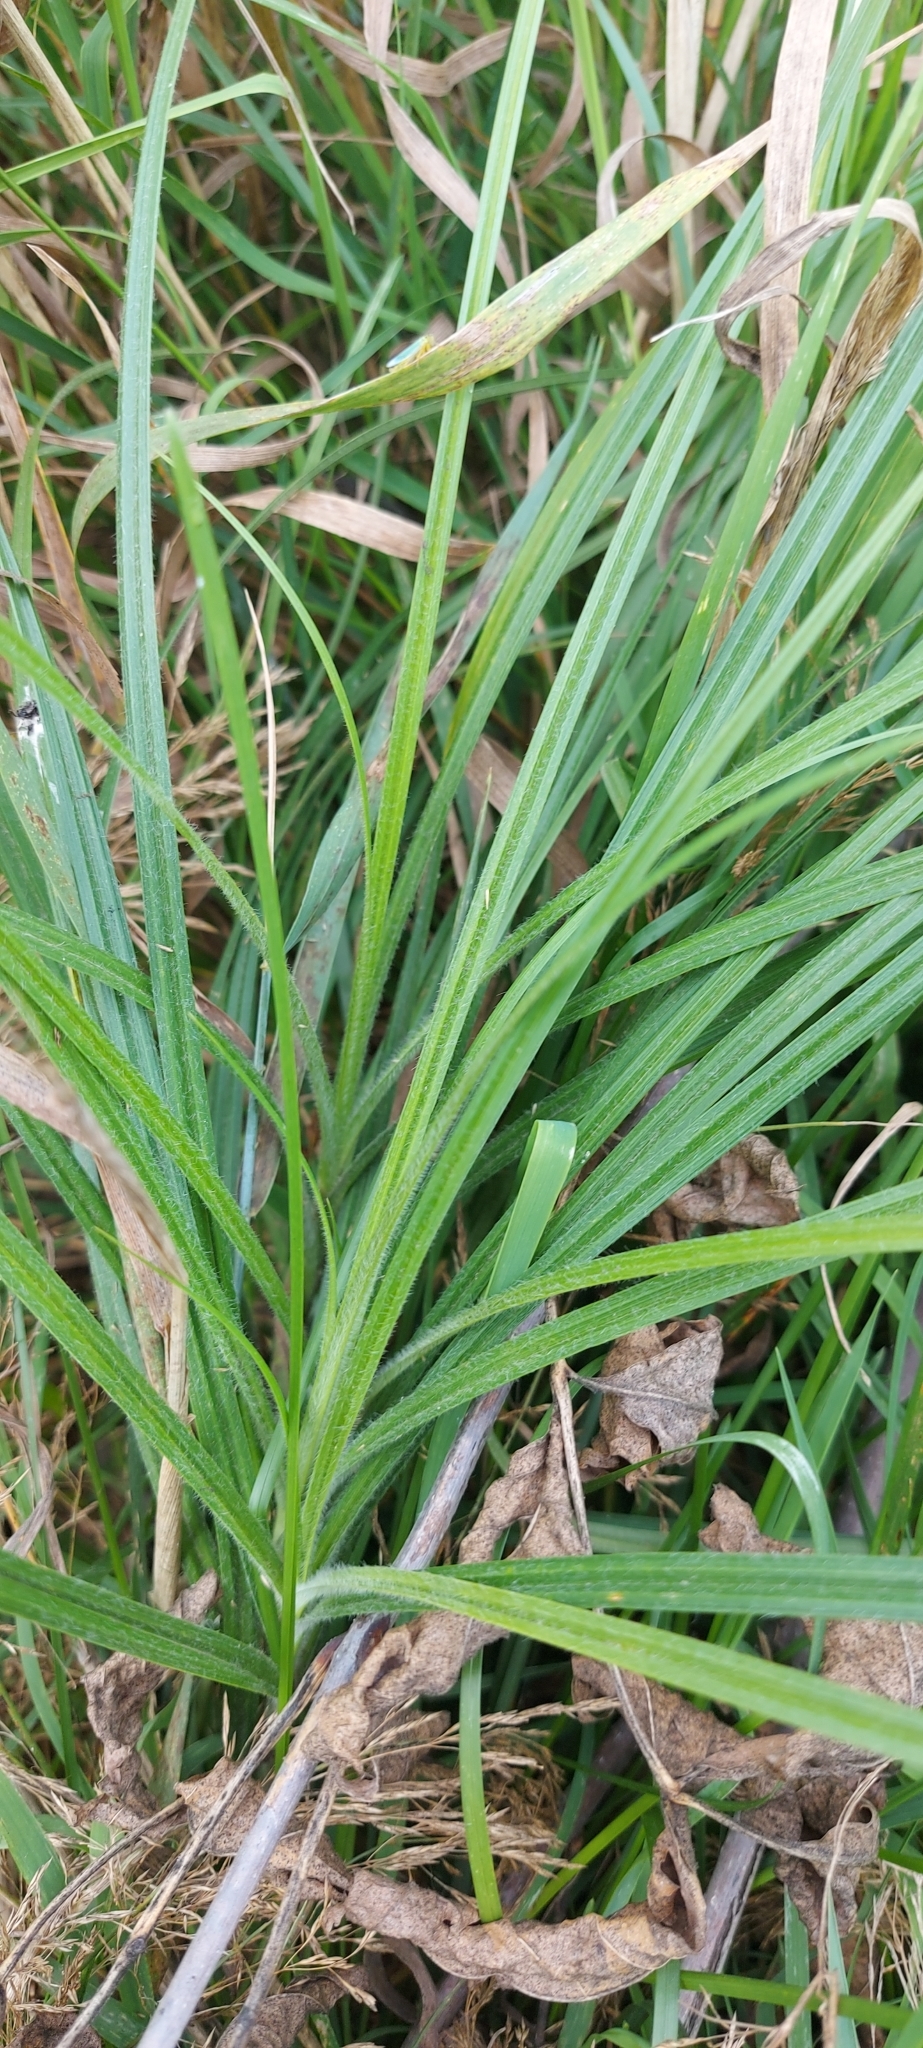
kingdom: Plantae
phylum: Tracheophyta
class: Liliopsida
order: Poales
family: Cyperaceae
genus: Carex
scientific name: Carex hirta
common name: Hairy sedge
